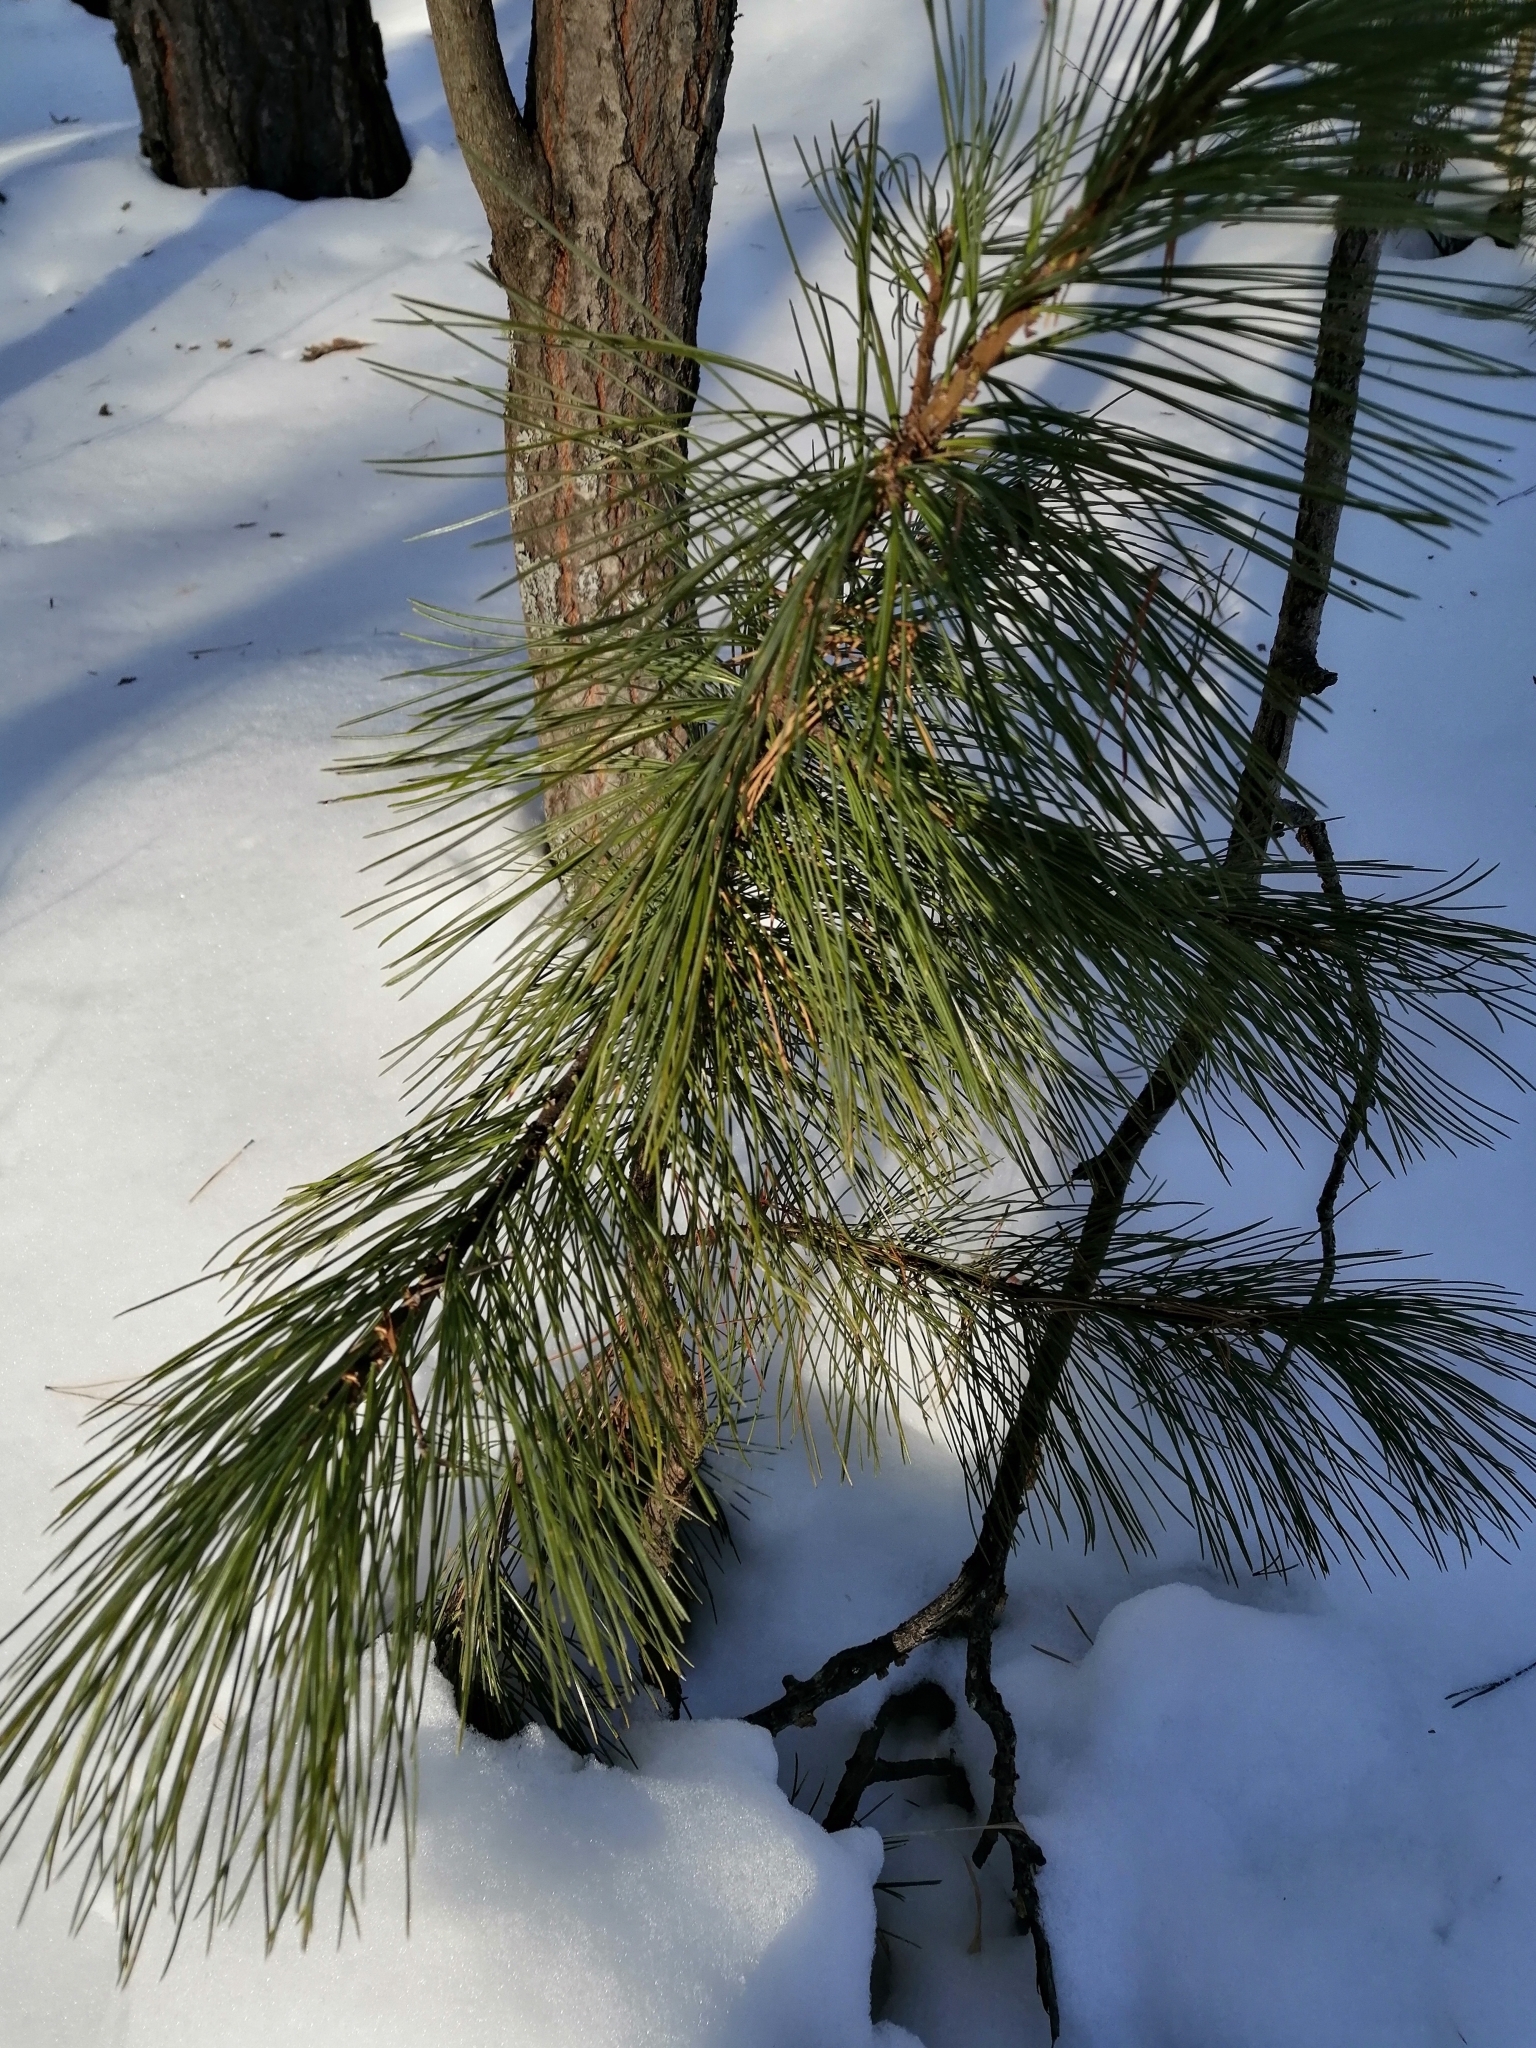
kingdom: Plantae
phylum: Tracheophyta
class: Pinopsida
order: Pinales
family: Pinaceae
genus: Pinus
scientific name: Pinus sibirica
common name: Siberian pine
